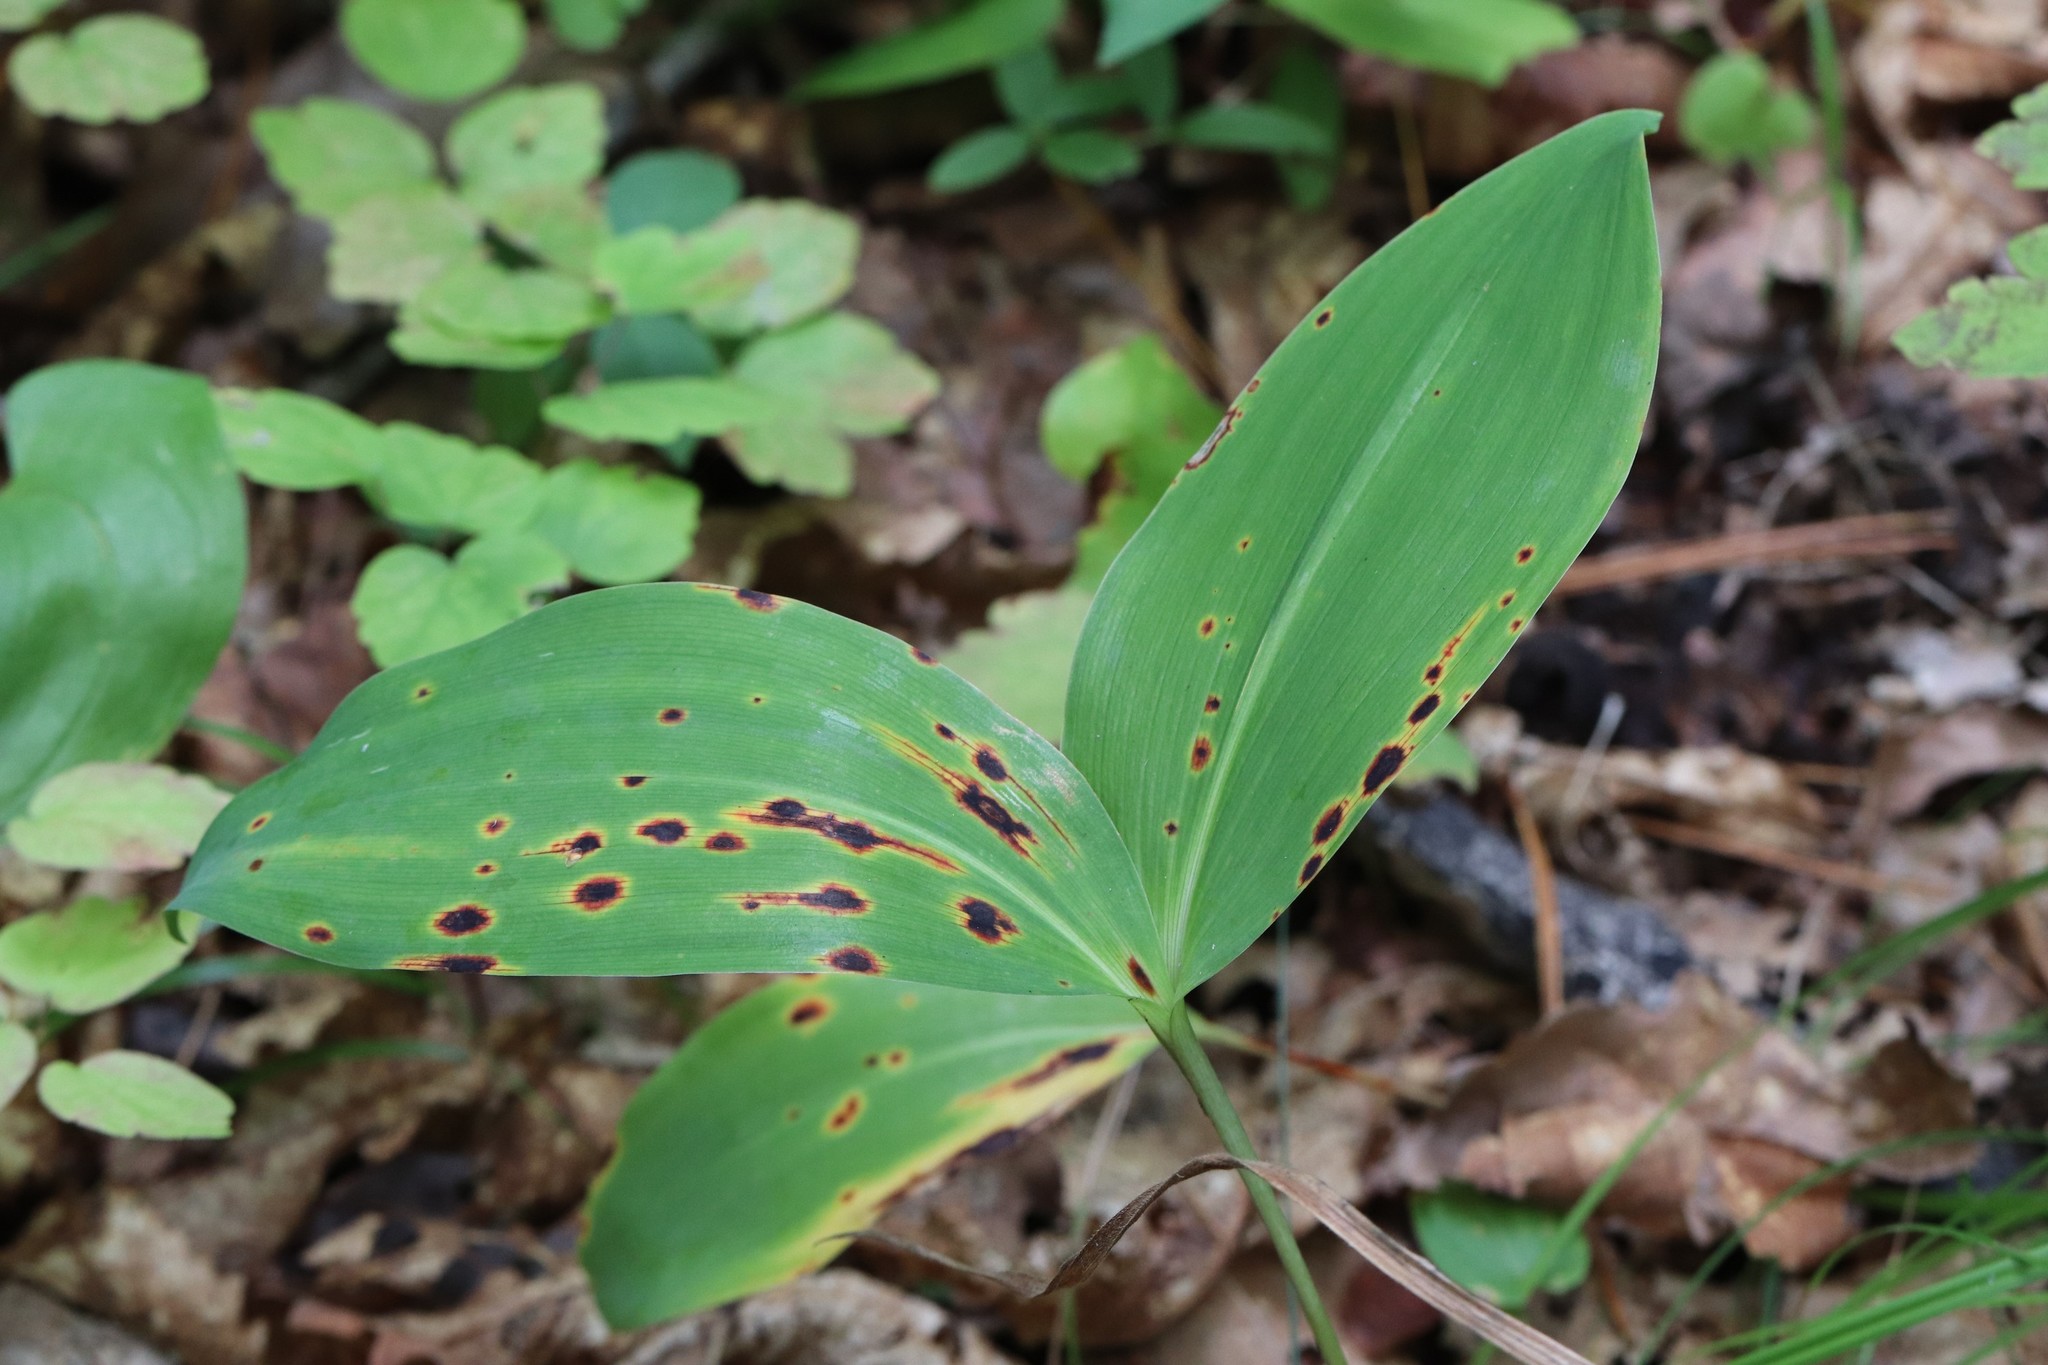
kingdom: Plantae
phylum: Tracheophyta
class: Liliopsida
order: Asparagales
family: Asparagaceae
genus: Convallaria
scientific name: Convallaria keiskei
